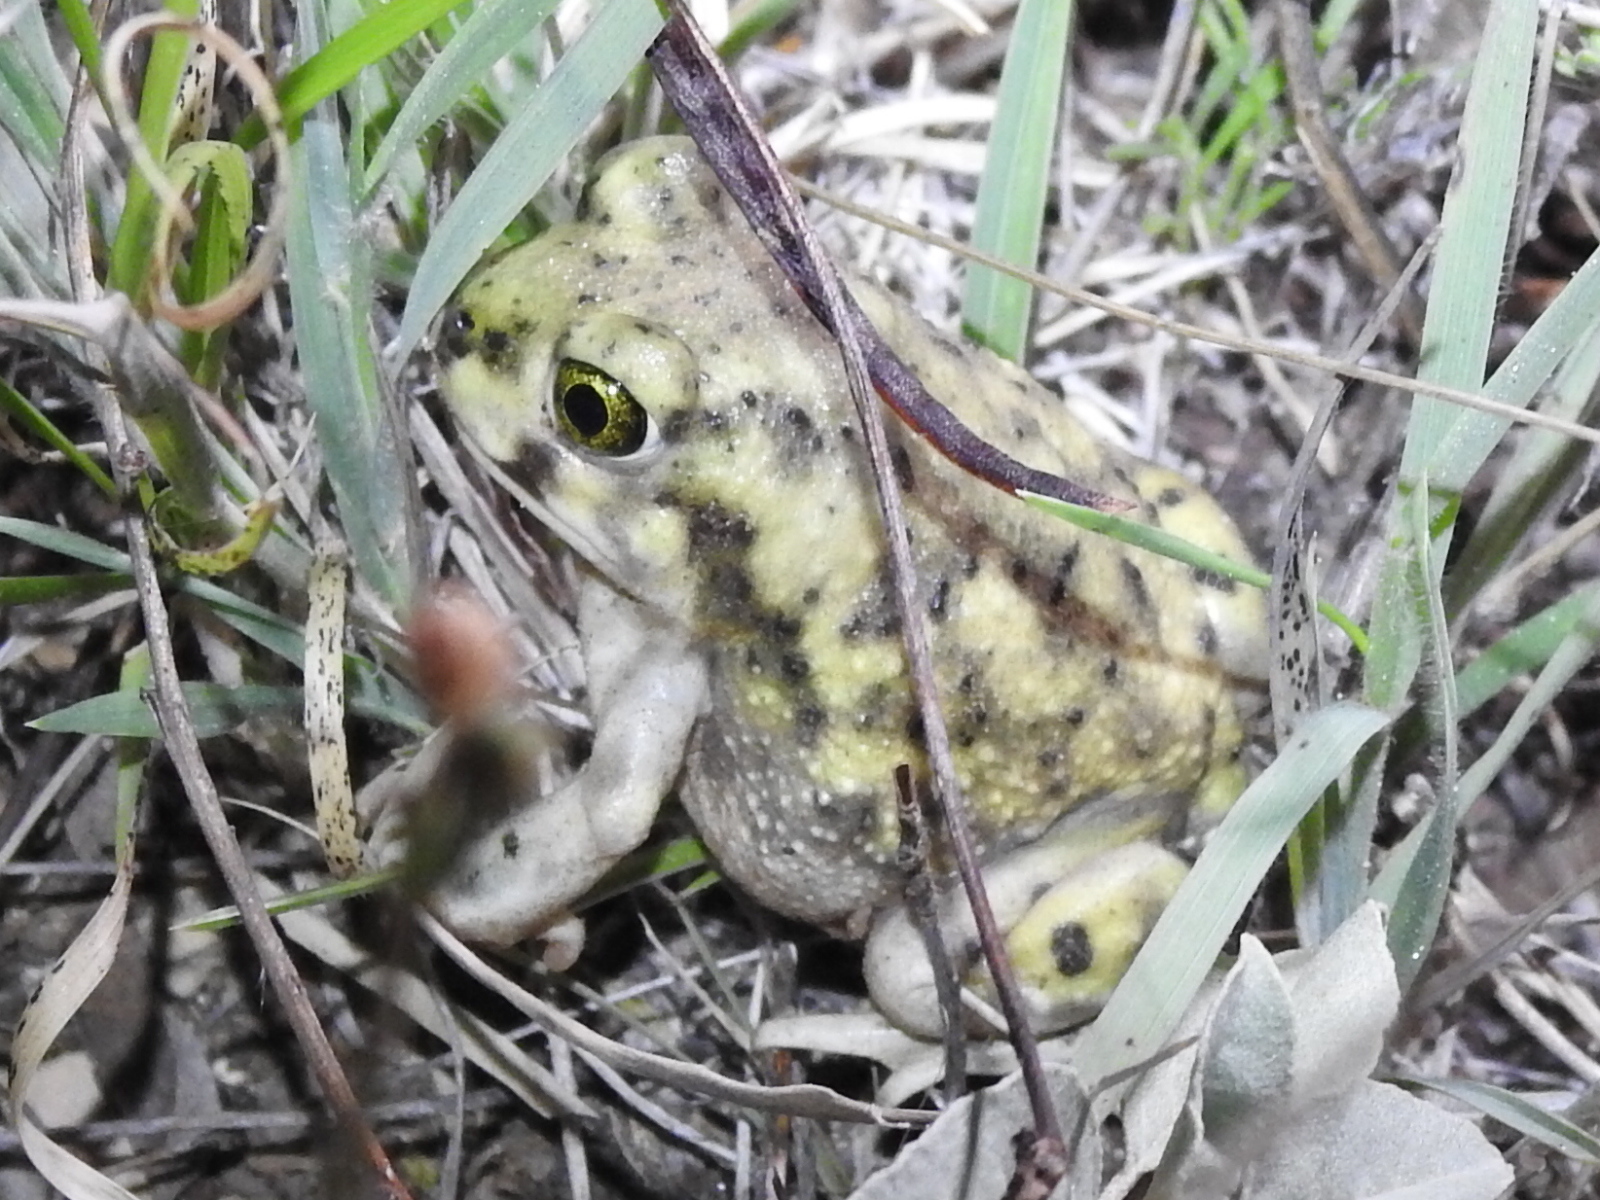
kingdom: Animalia
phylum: Chordata
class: Amphibia
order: Anura
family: Scaphiopodidae
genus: Scaphiopus
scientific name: Scaphiopus couchii
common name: Couch's spadefoot toad
